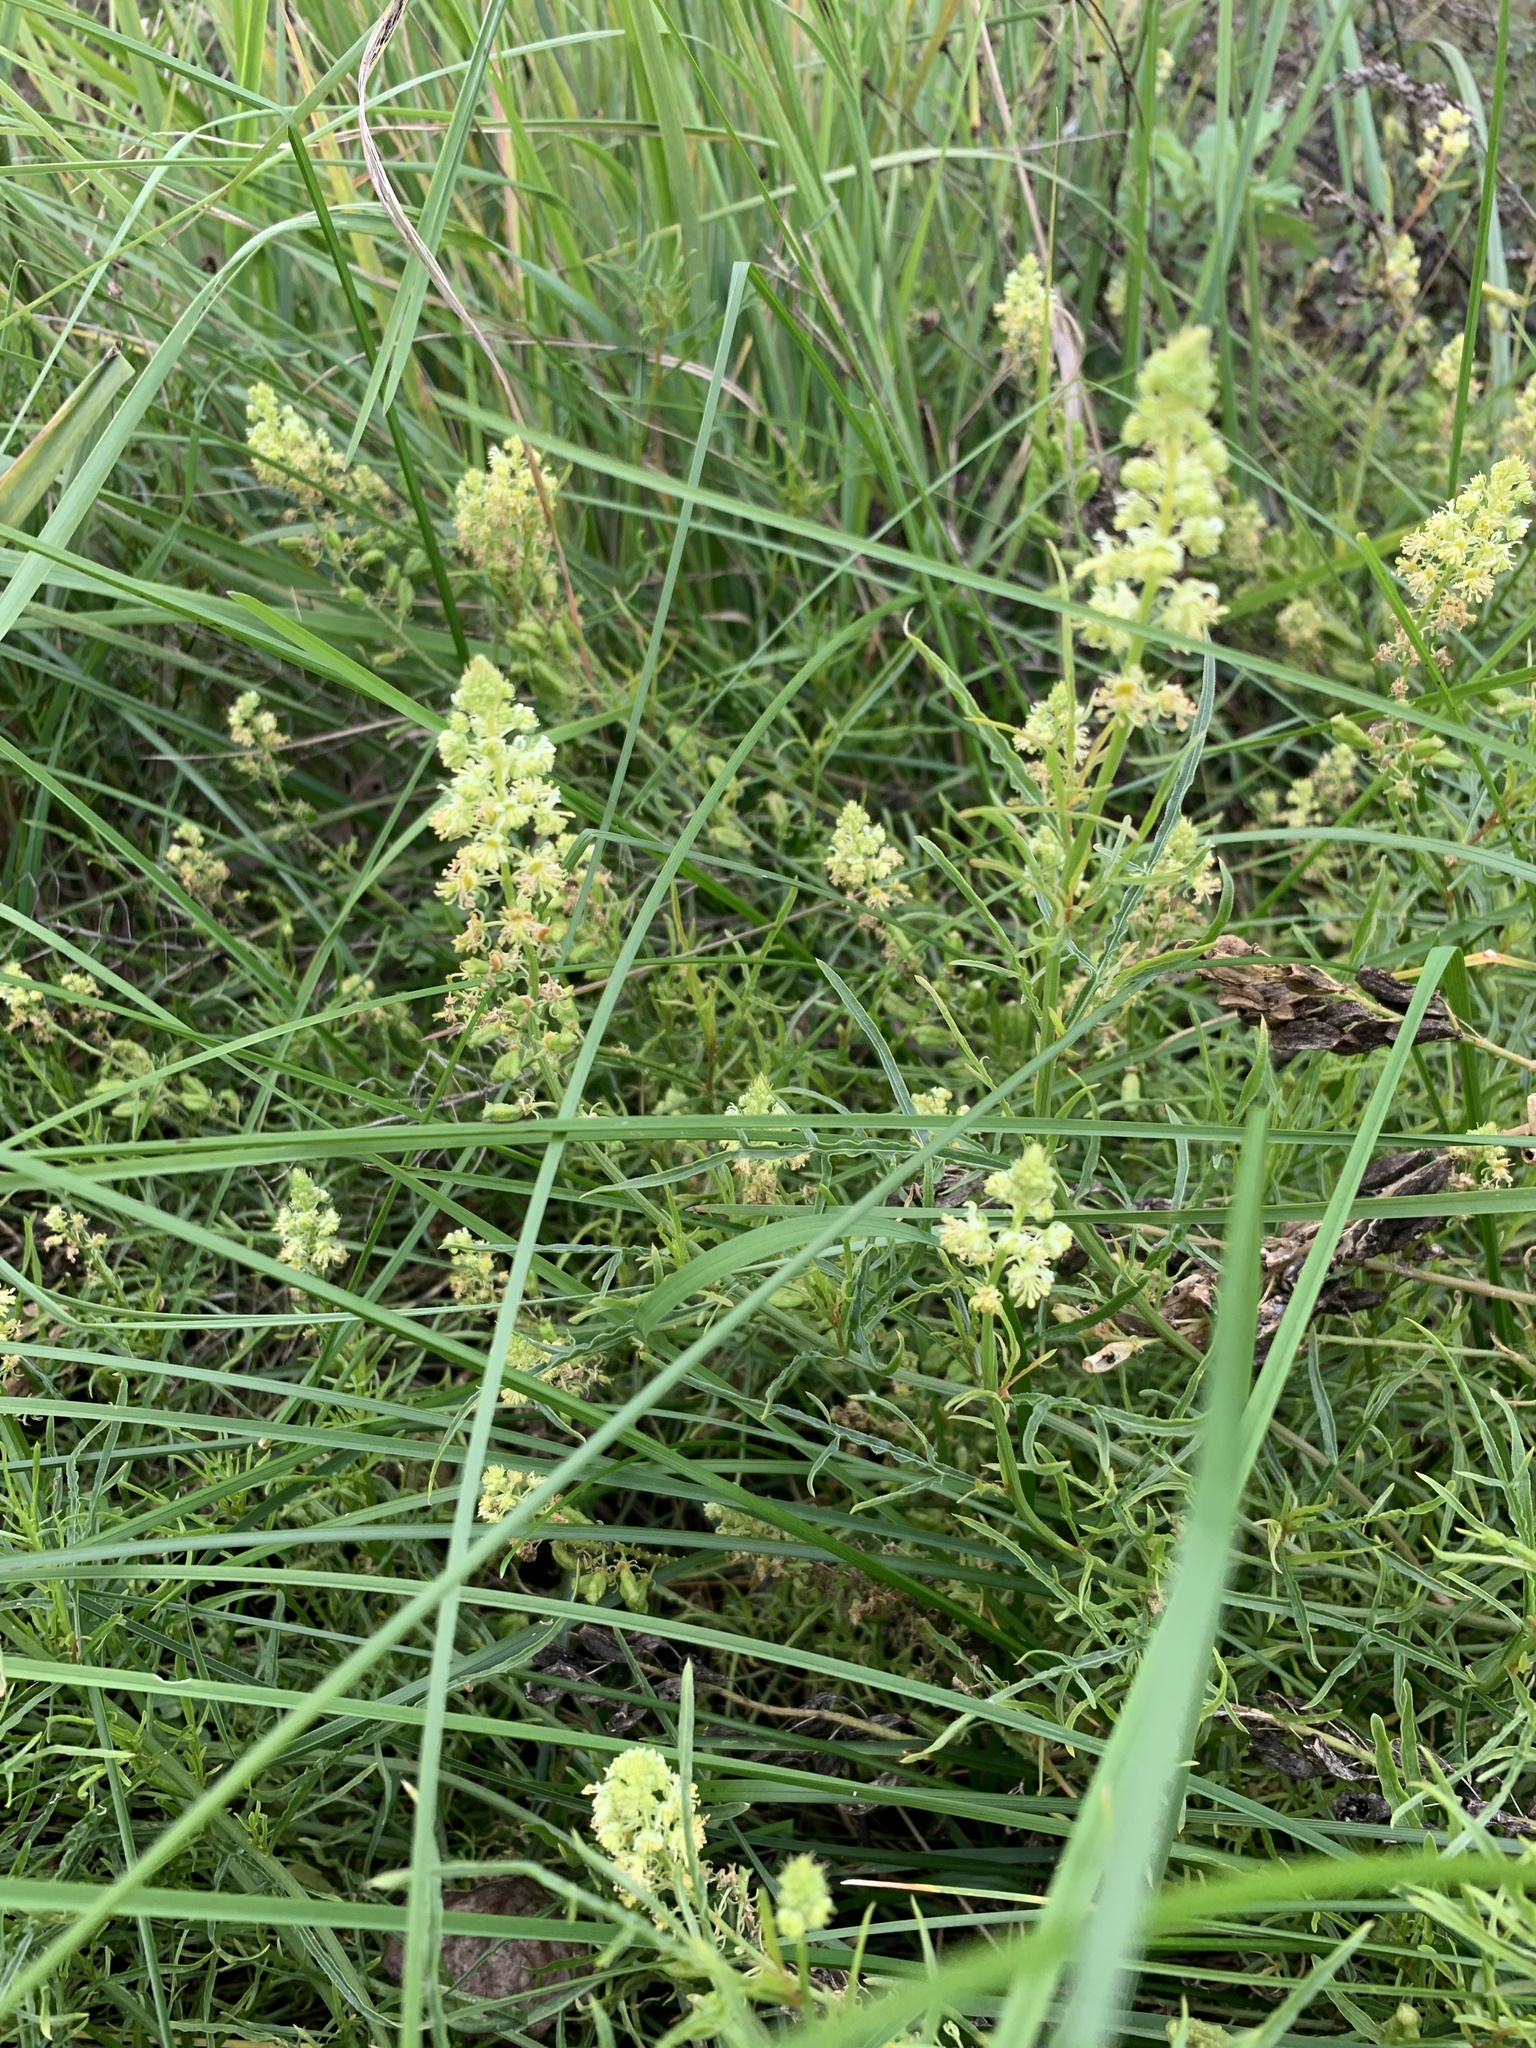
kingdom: Plantae
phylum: Tracheophyta
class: Magnoliopsida
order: Brassicales
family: Resedaceae
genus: Reseda
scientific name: Reseda lutea
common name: Wild mignonette
